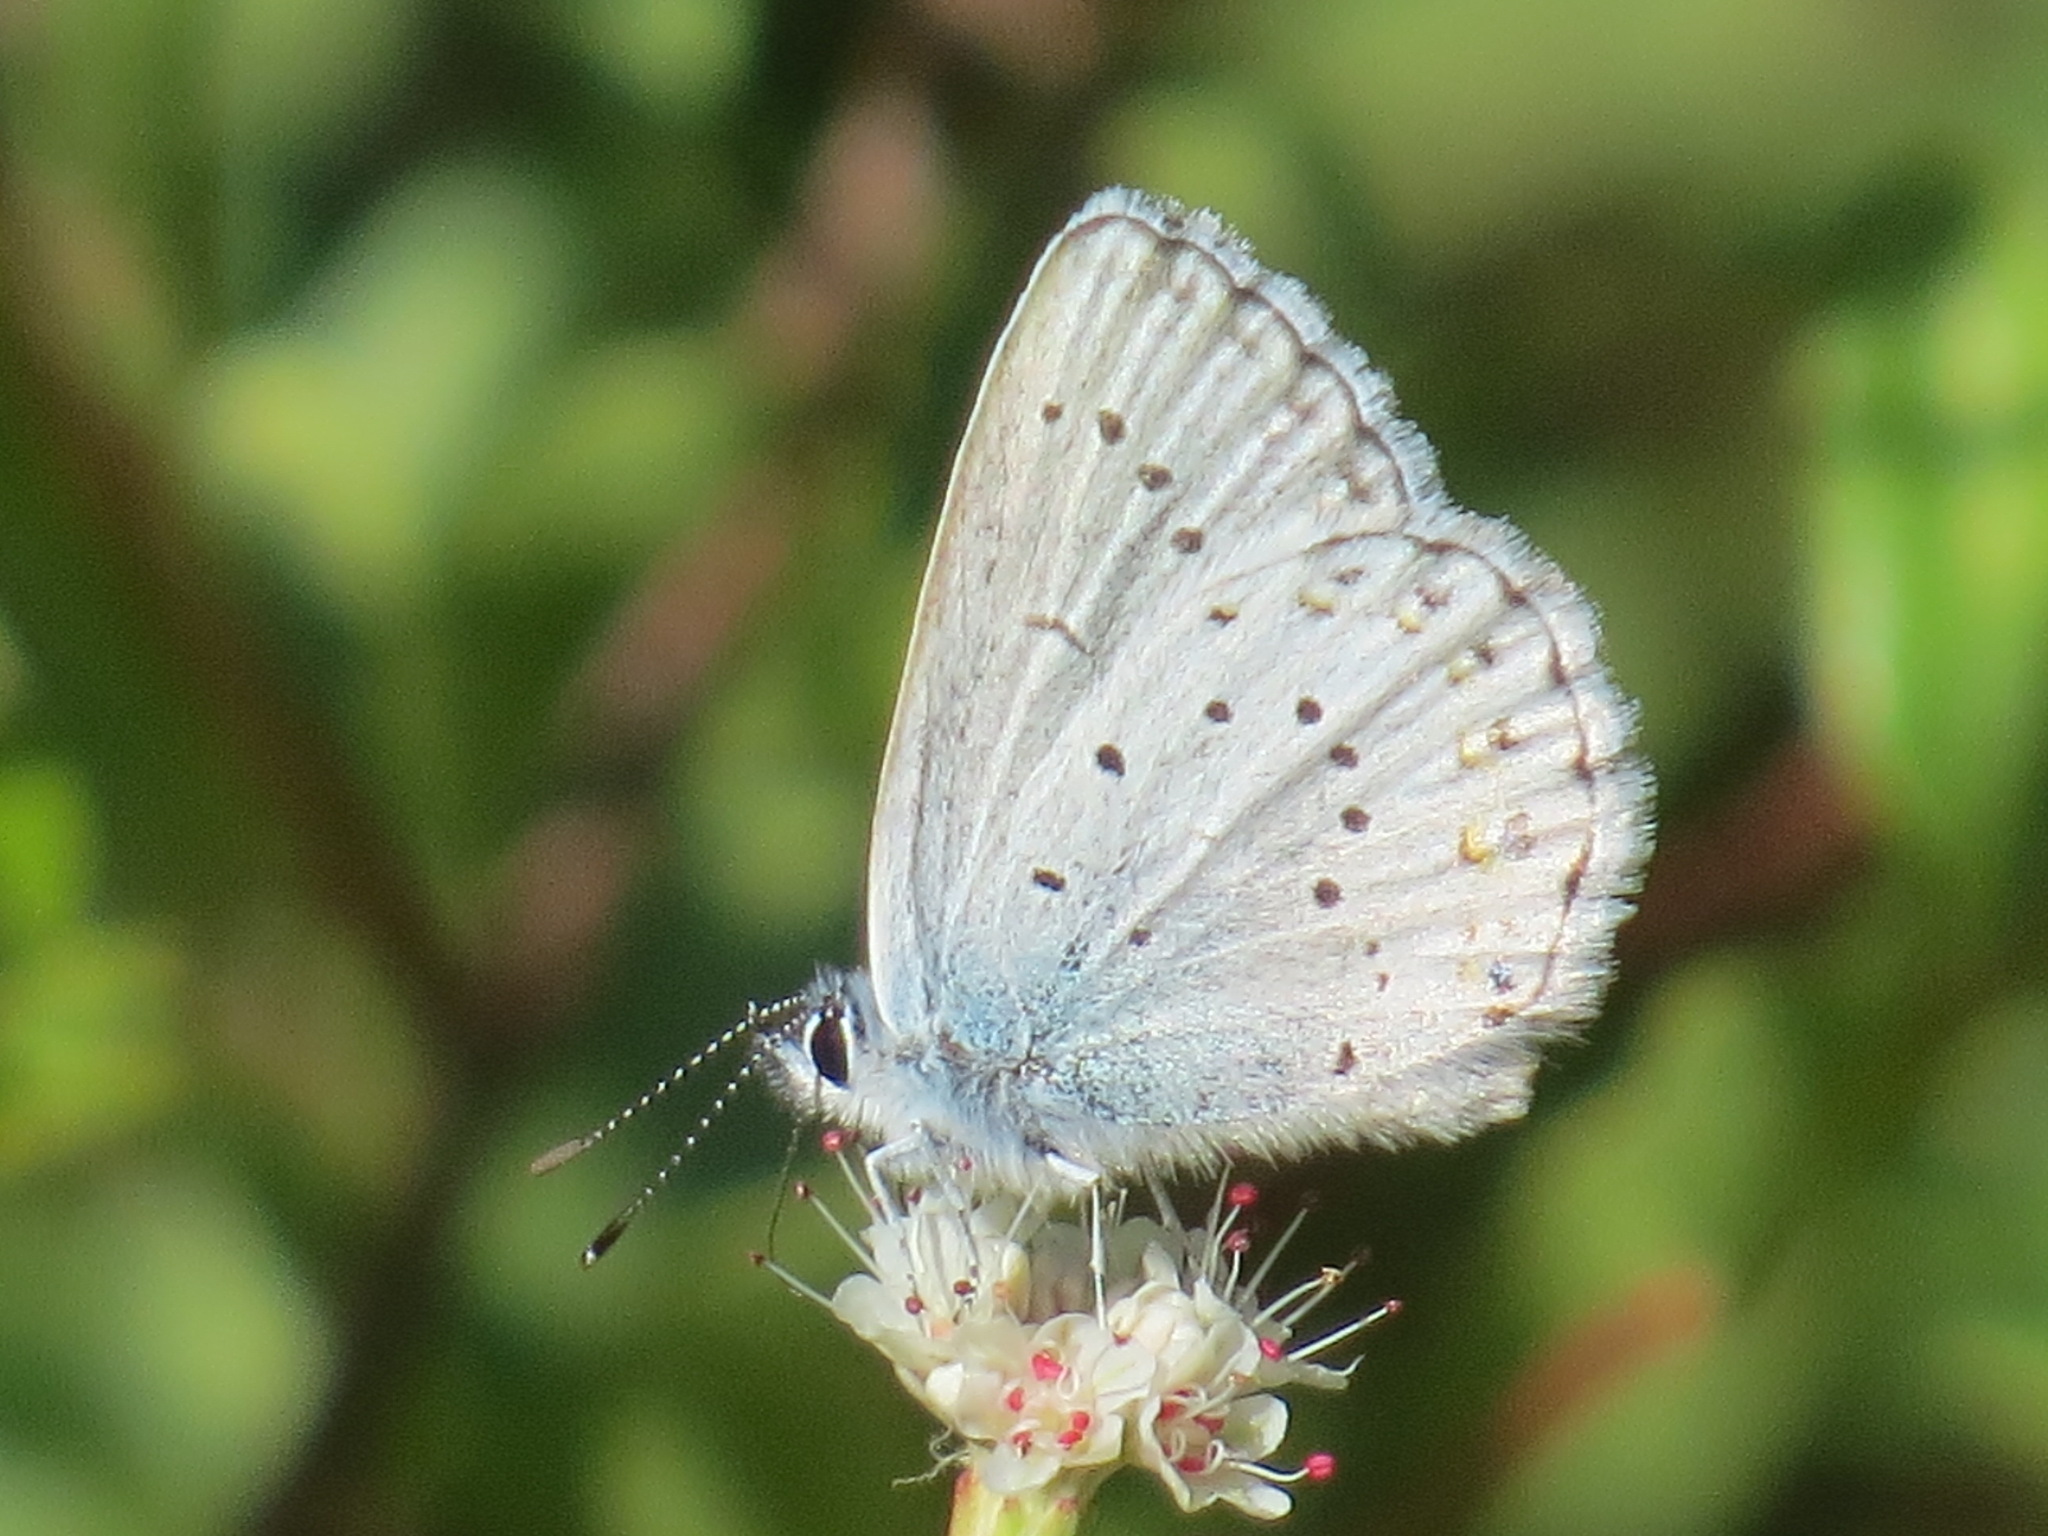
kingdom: Animalia
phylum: Arthropoda
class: Insecta
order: Lepidoptera
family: Lycaenidae
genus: Lycaeides
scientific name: Lycaeides anna
